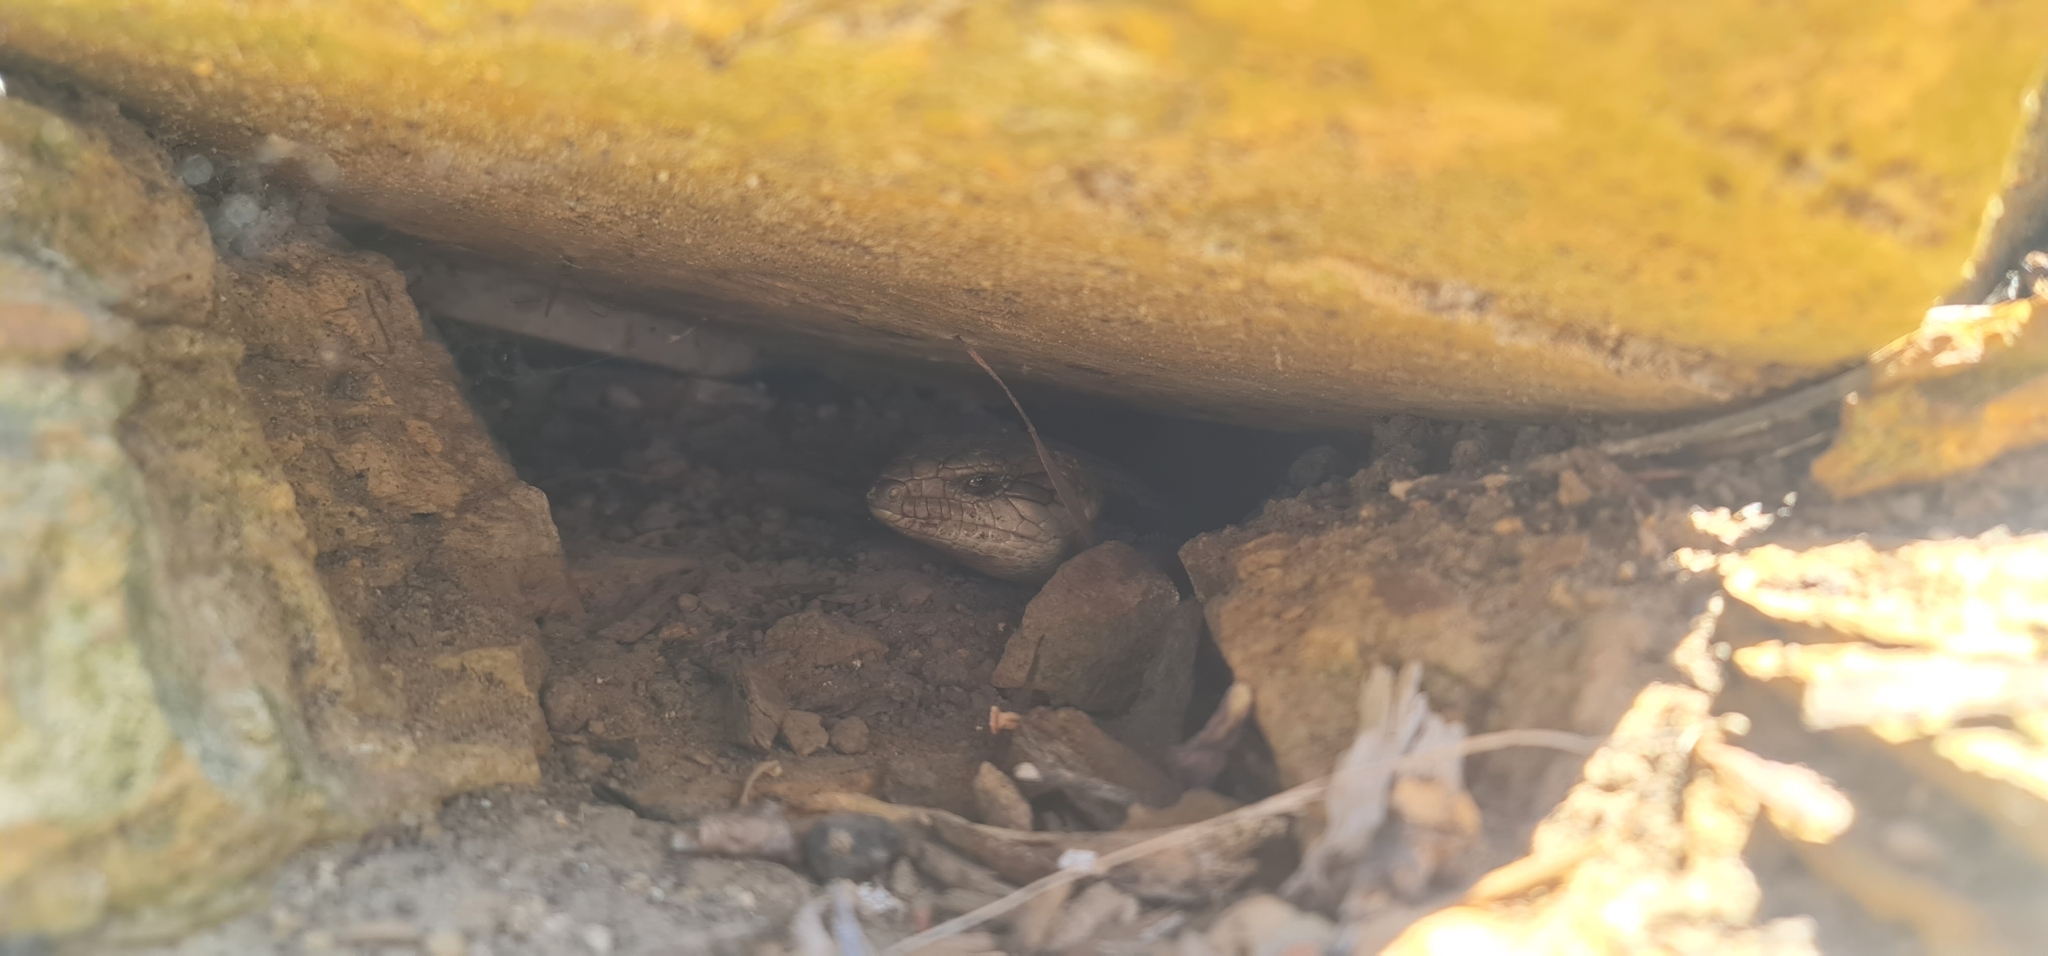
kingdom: Animalia
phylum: Chordata
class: Squamata
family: Scincidae
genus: Tiliqua
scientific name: Tiliqua scincoides
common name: Common bluetongue
